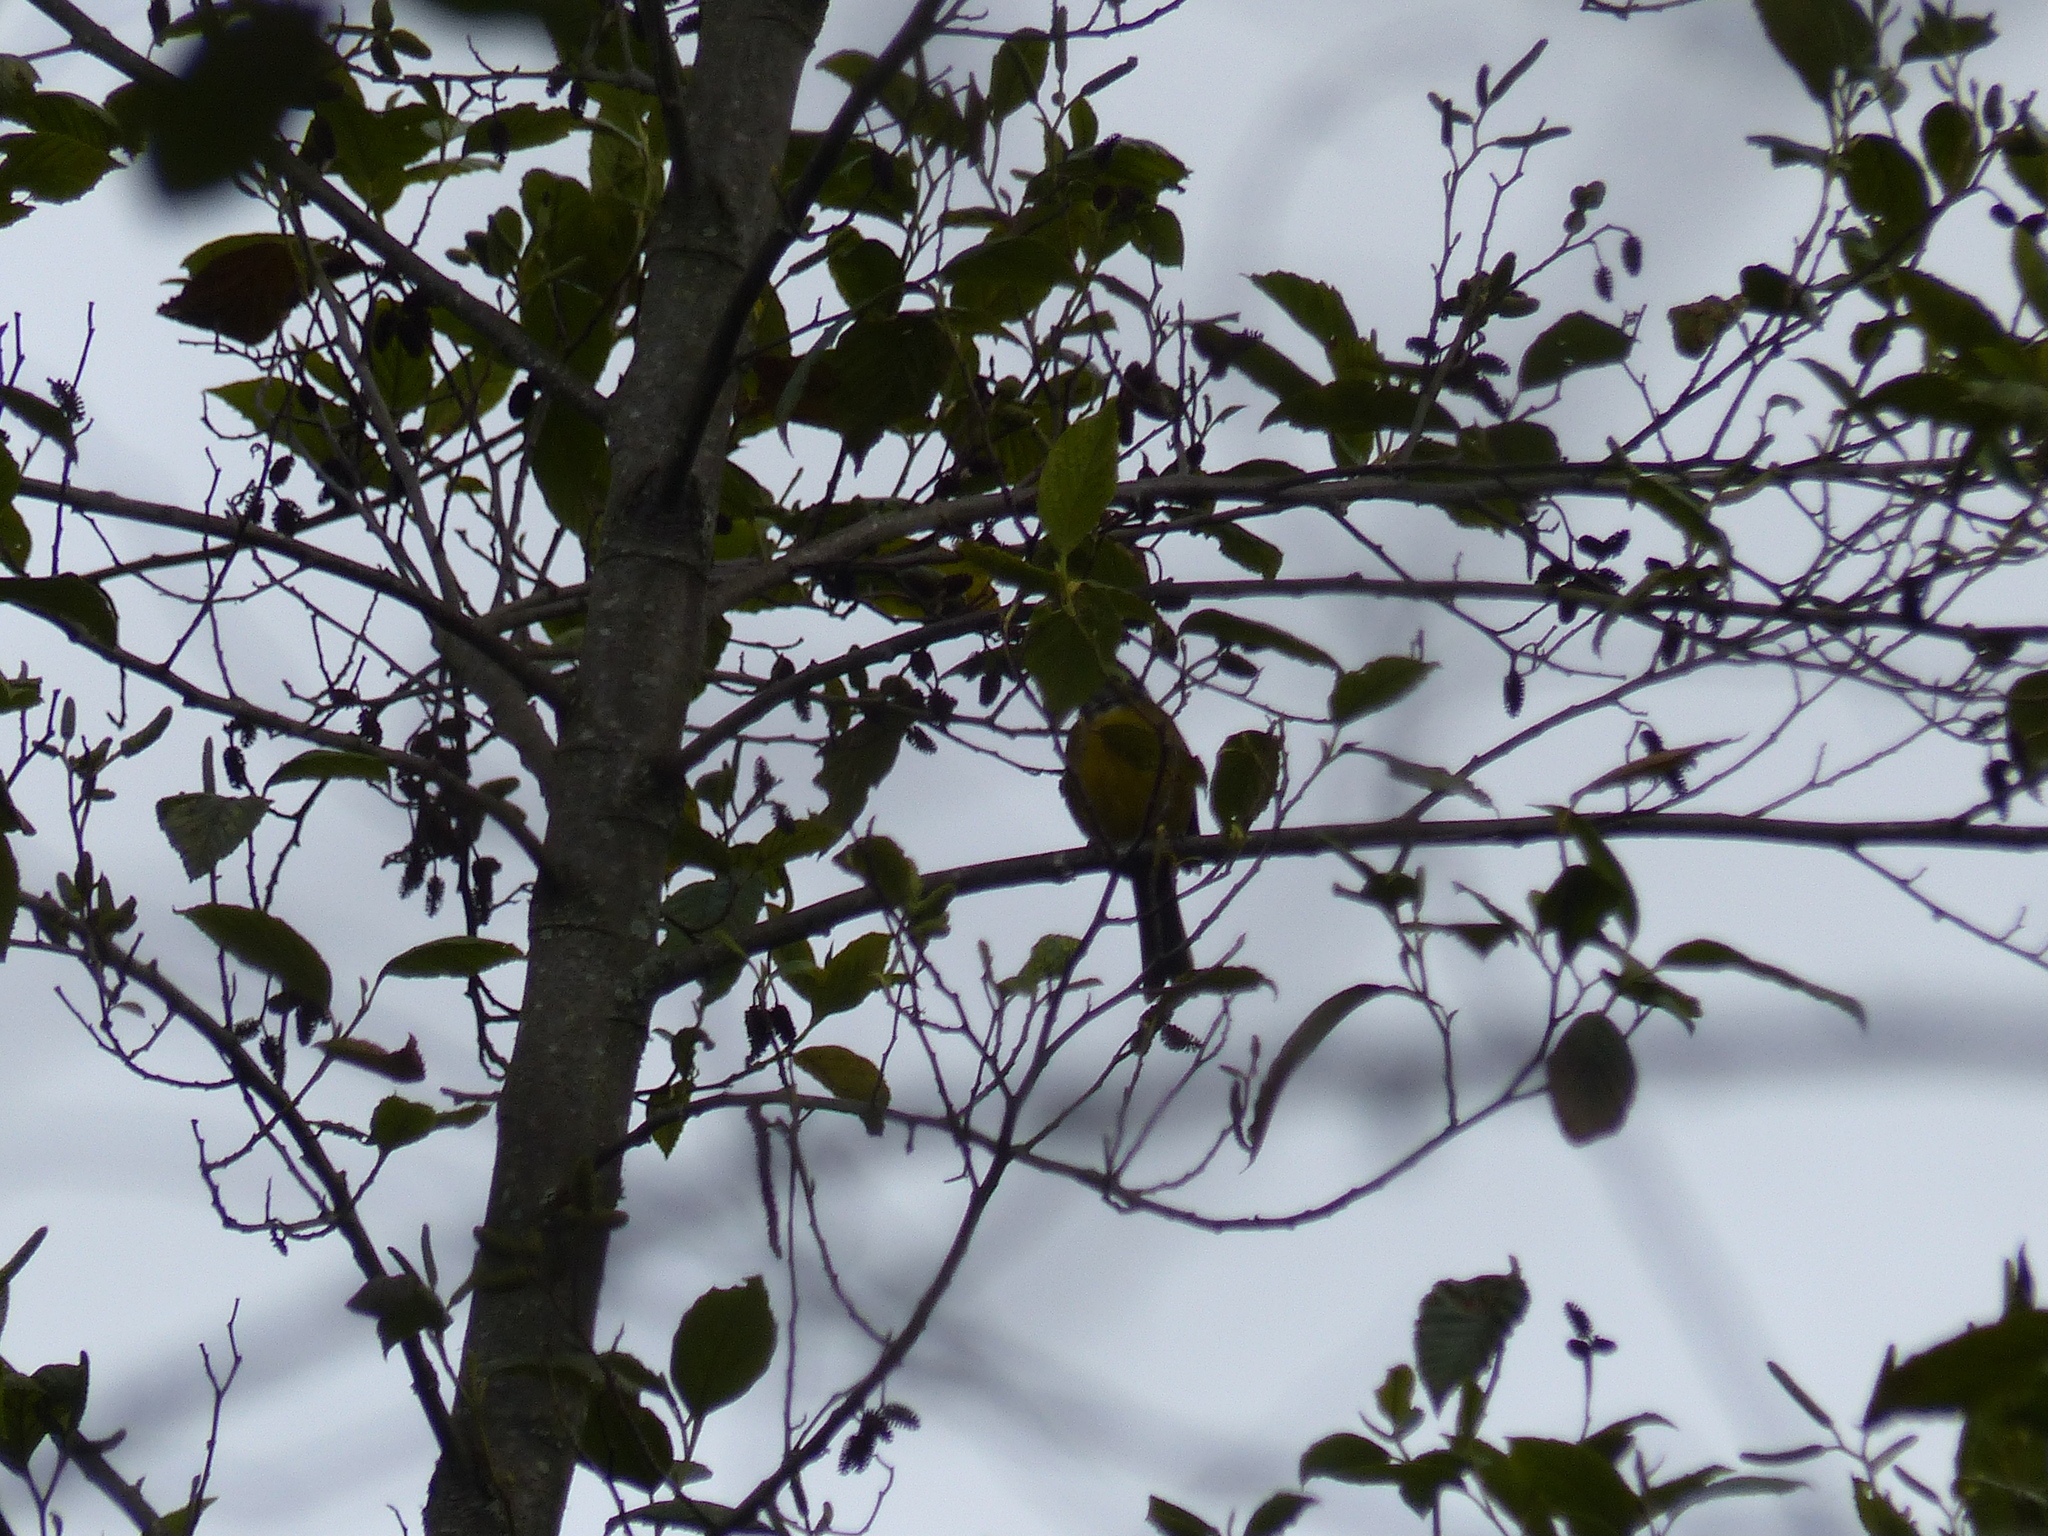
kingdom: Animalia
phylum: Chordata
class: Aves
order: Passeriformes
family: Passerellidae
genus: Atlapetes
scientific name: Atlapetes albofrenatus
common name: Moustached brushfinch
